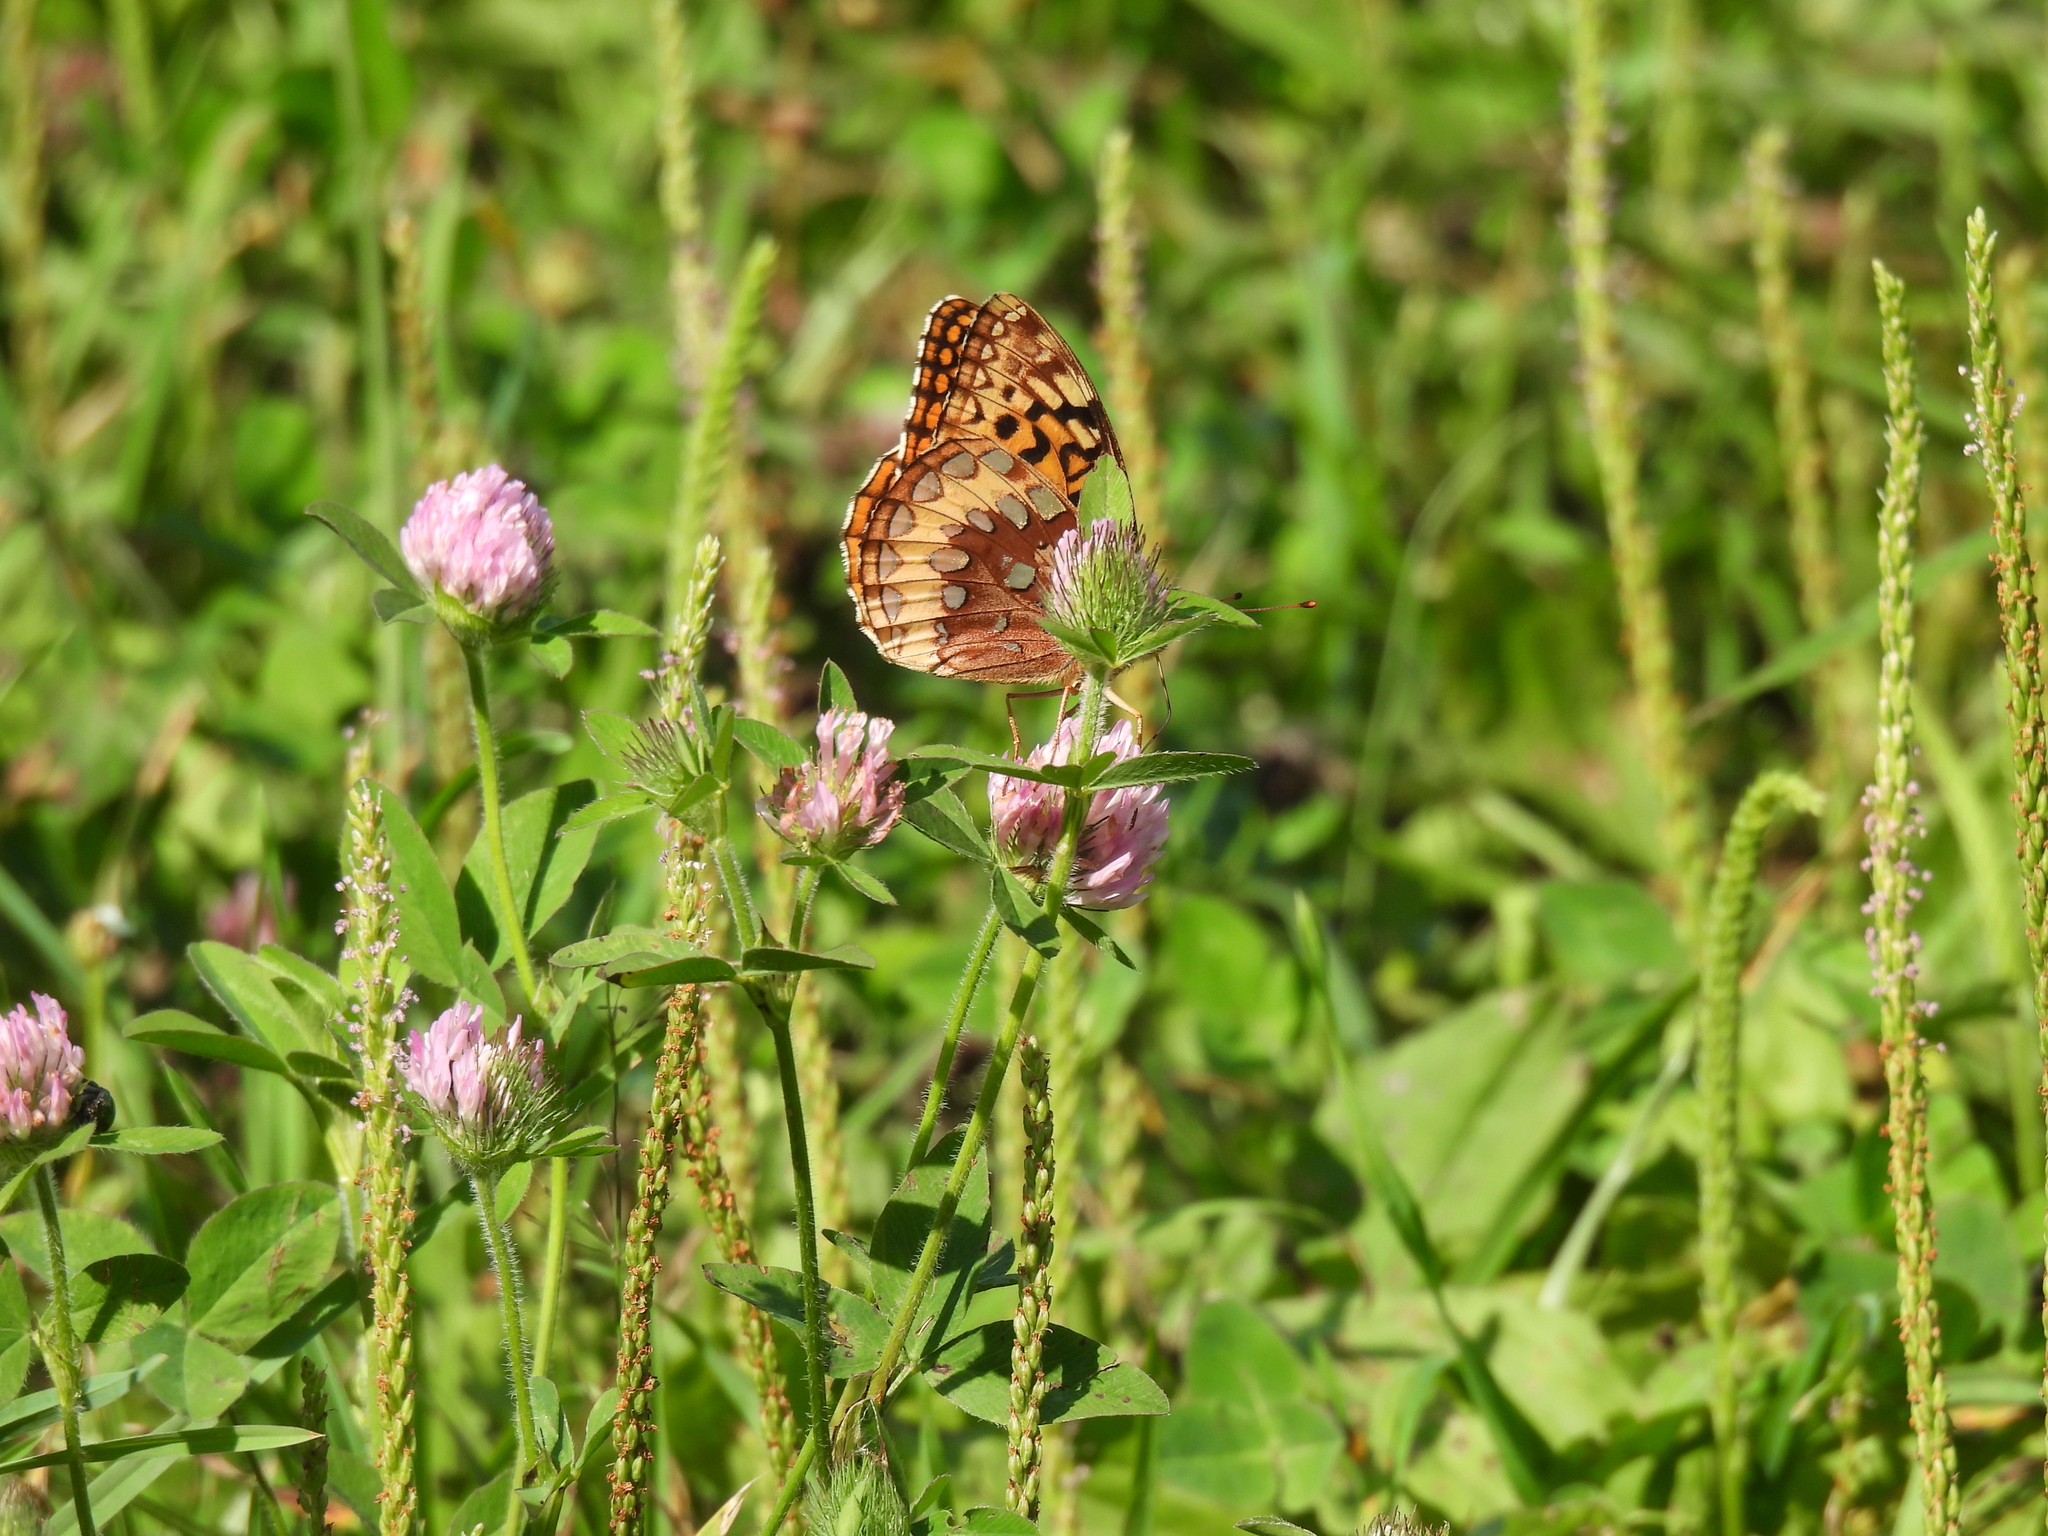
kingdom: Animalia
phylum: Arthropoda
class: Insecta
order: Lepidoptera
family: Nymphalidae
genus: Speyeria
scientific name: Speyeria cybele
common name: Great spangled fritillary
